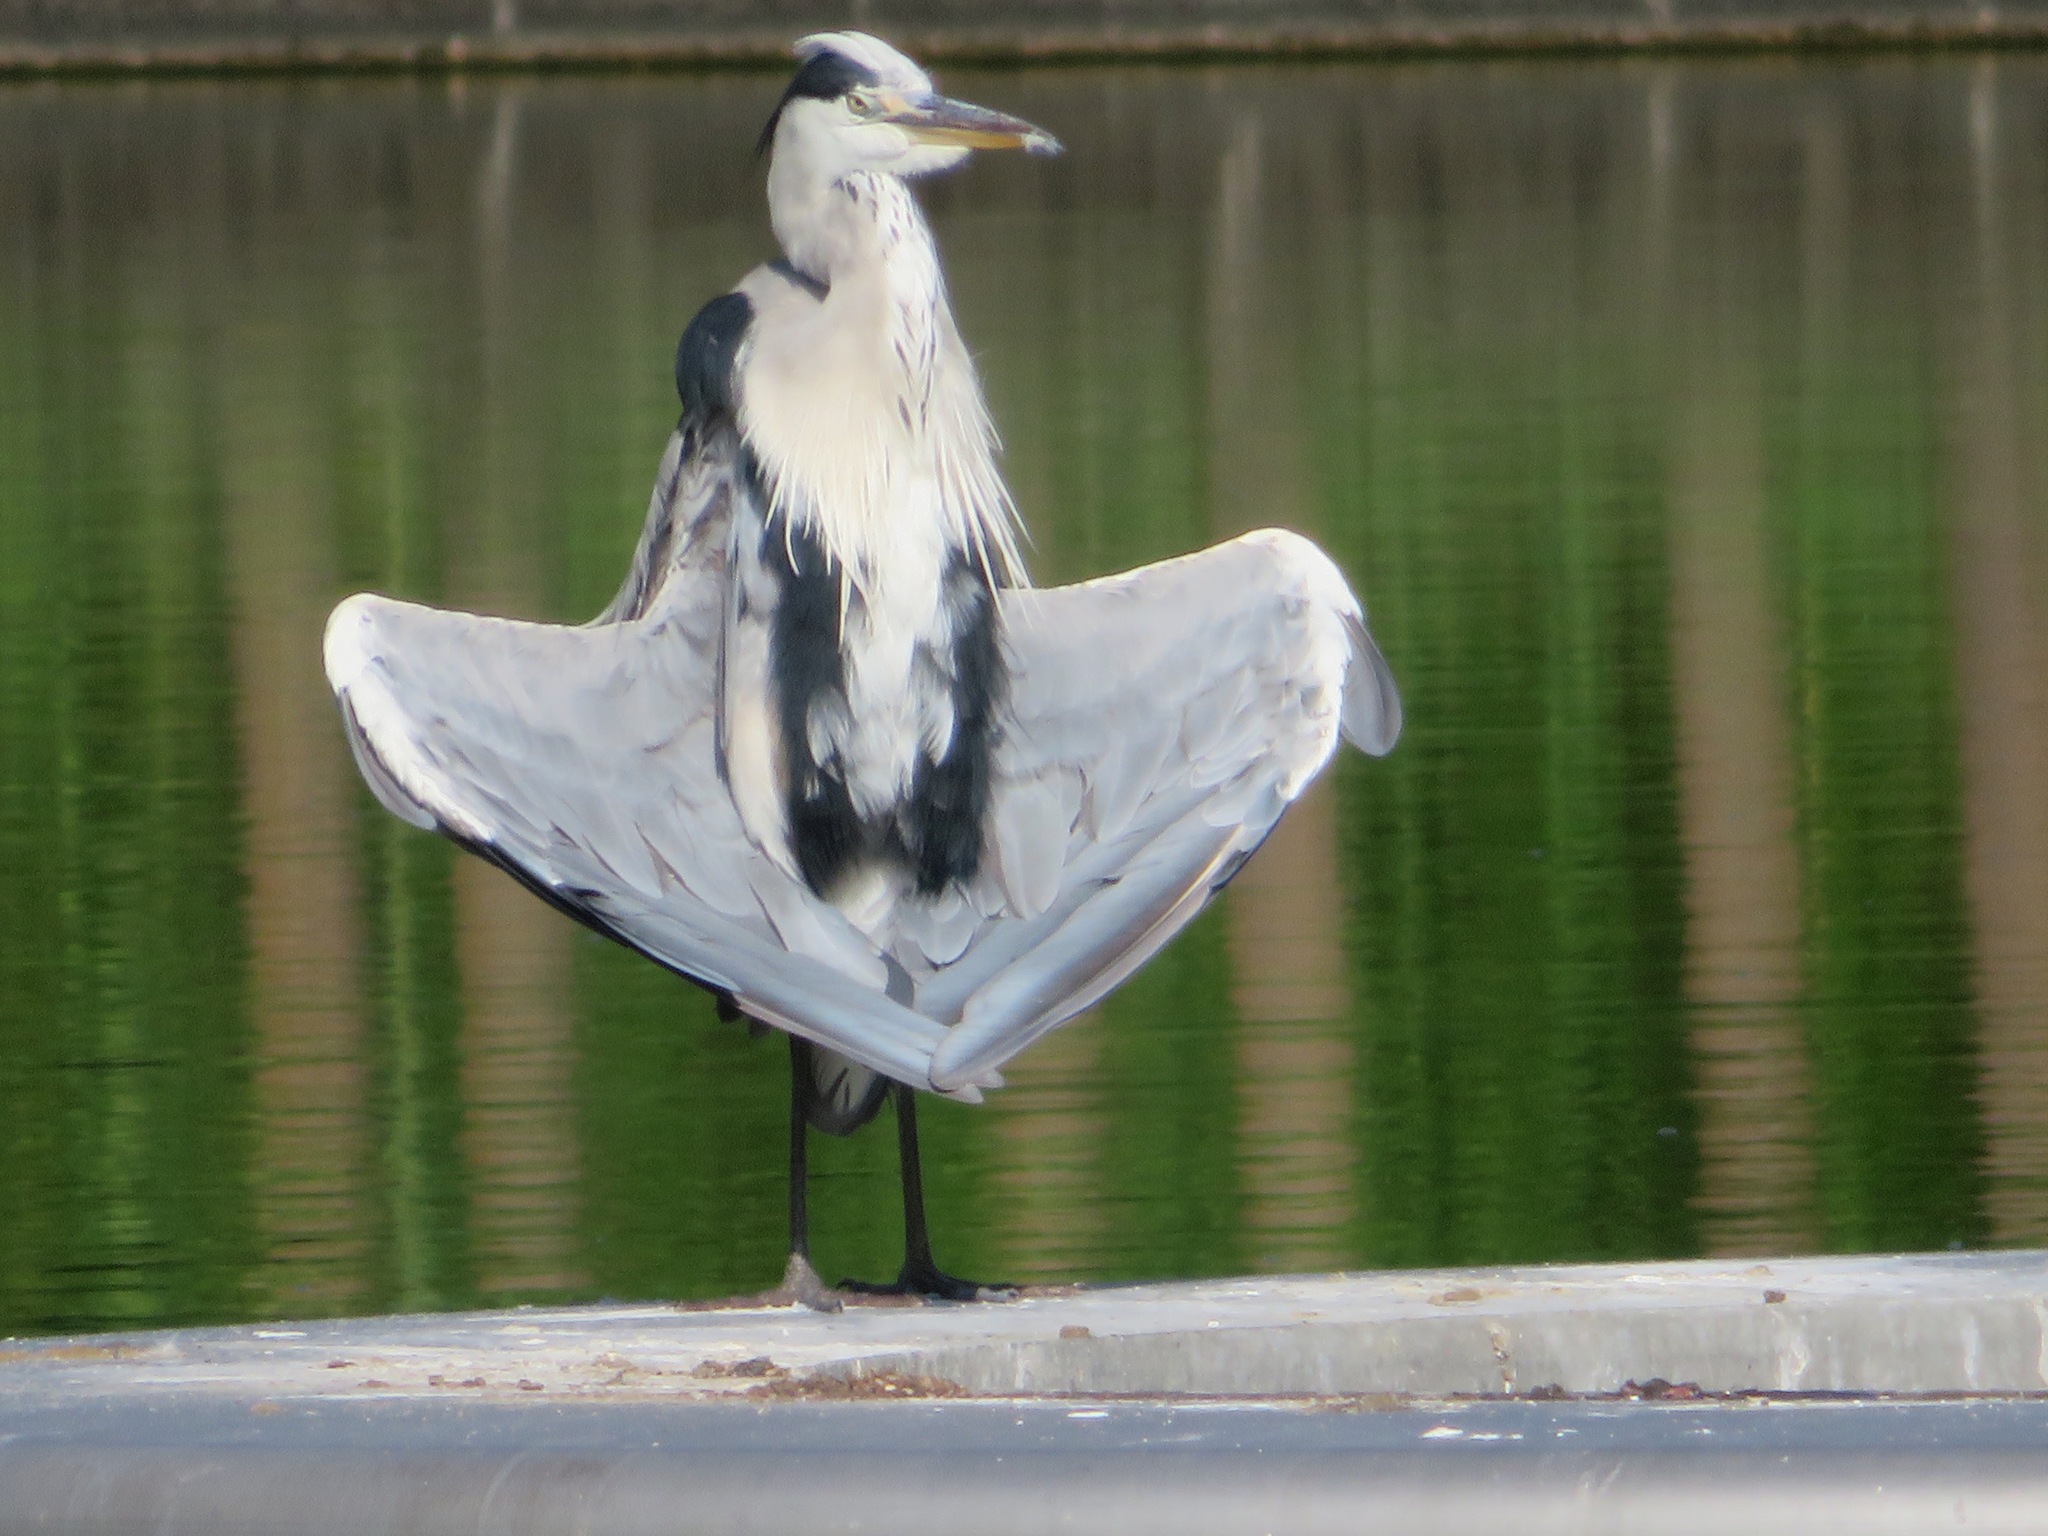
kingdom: Animalia
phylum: Chordata
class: Aves
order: Pelecaniformes
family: Ardeidae
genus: Ardea
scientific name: Ardea cinerea
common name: Grey heron
